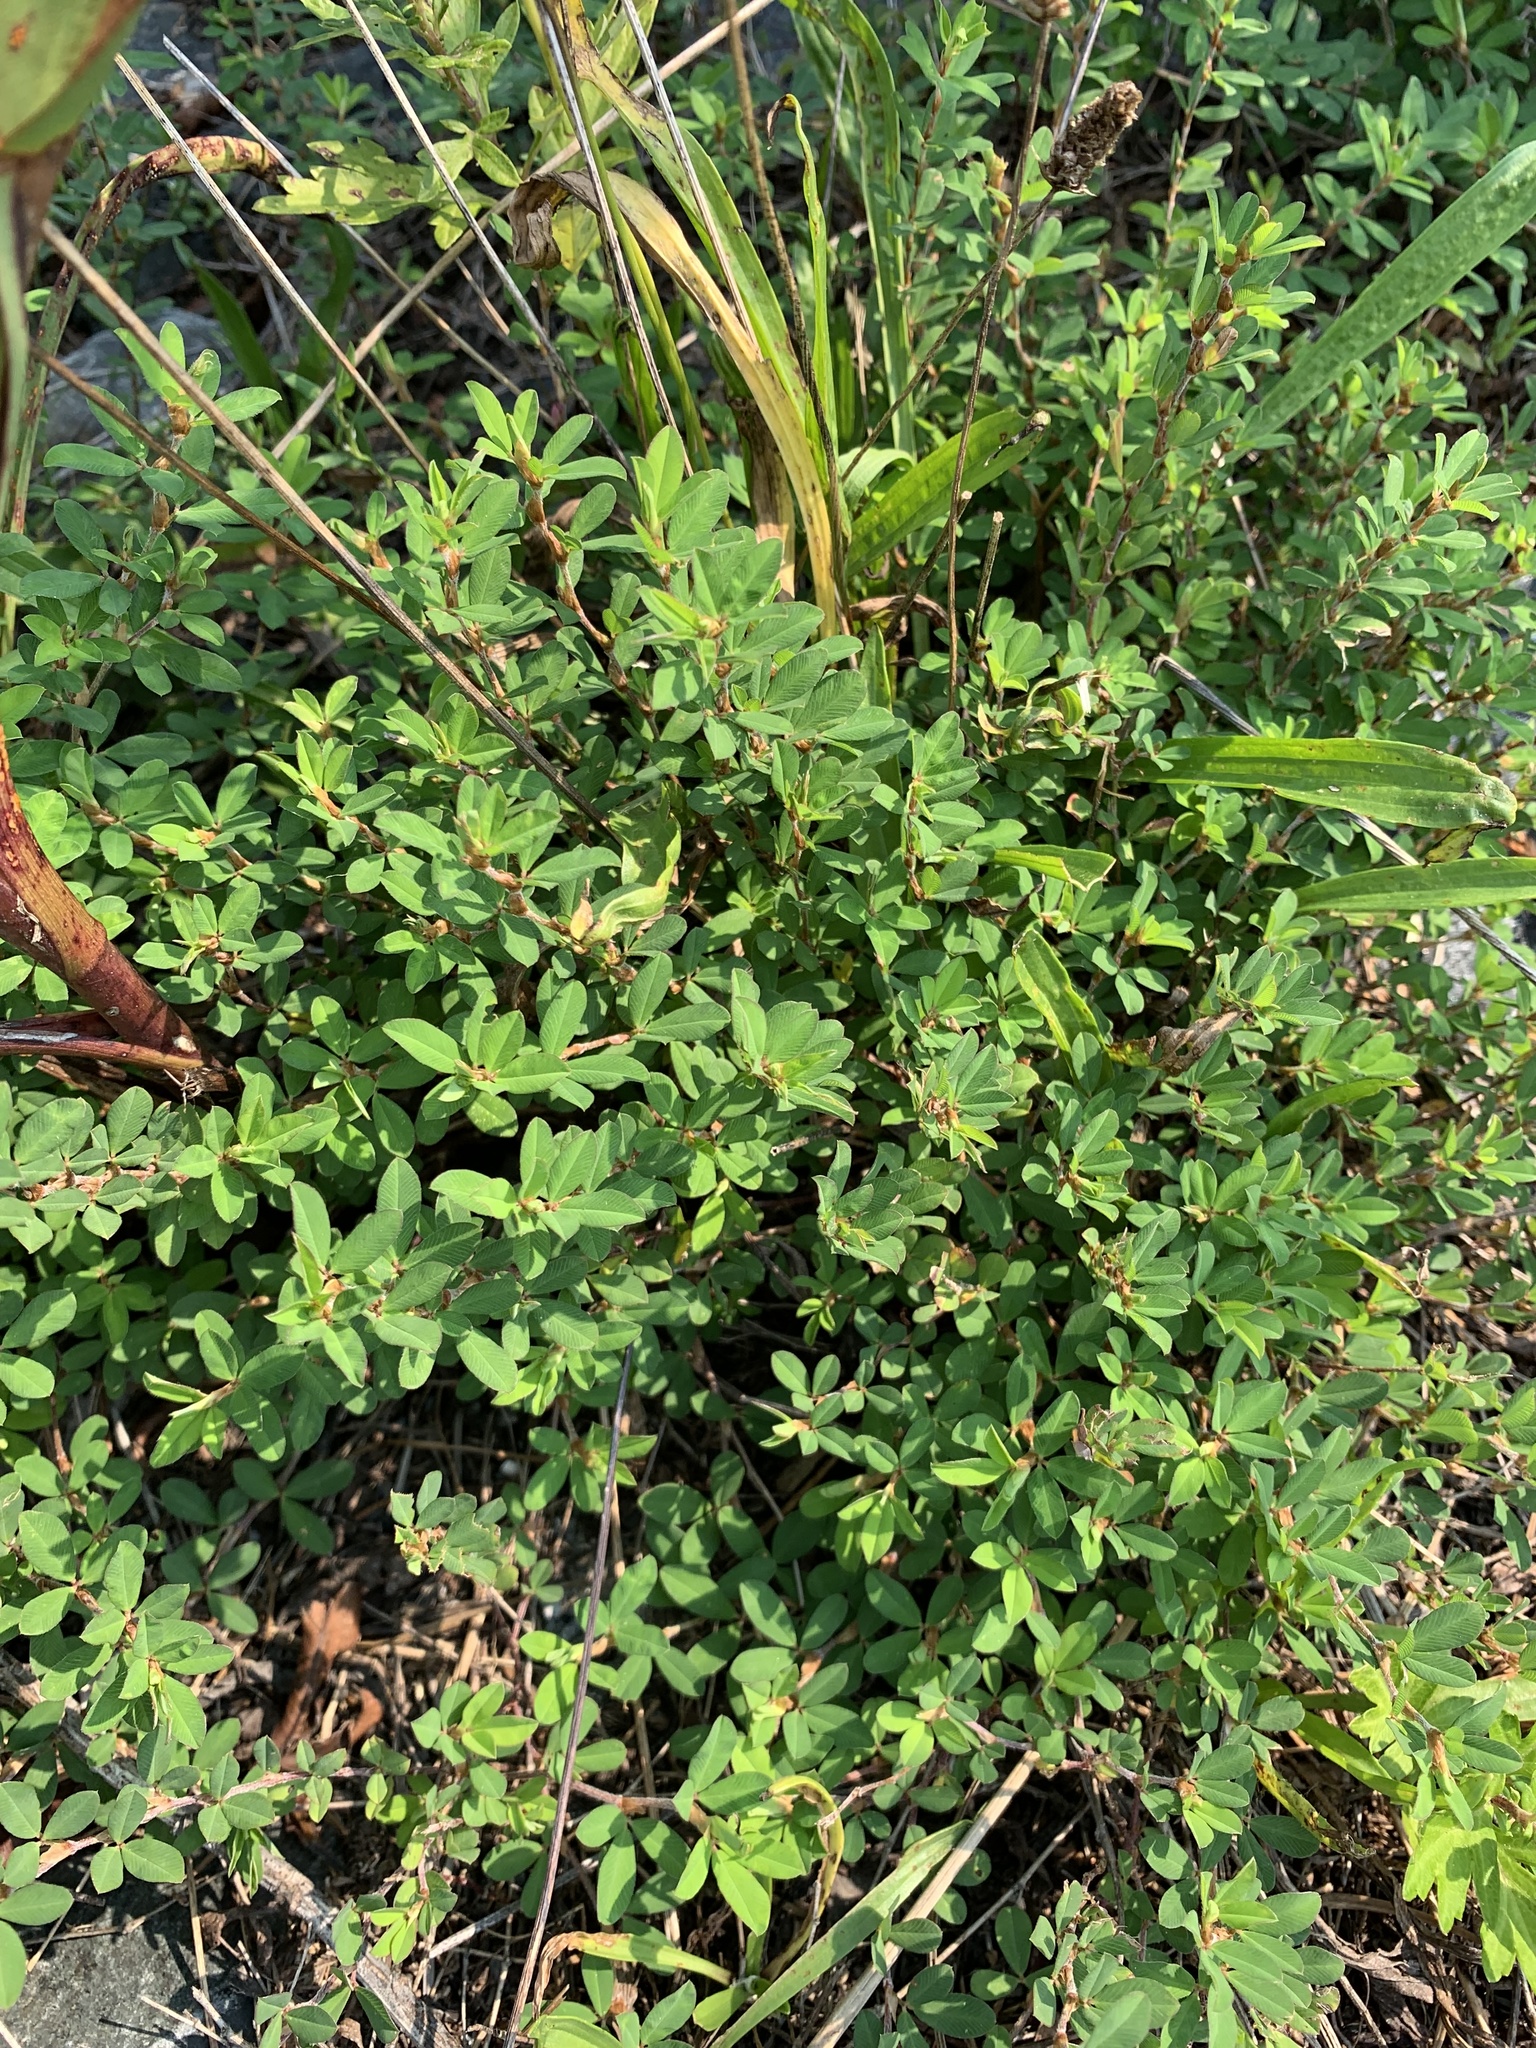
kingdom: Plantae
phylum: Tracheophyta
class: Magnoliopsida
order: Fabales
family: Fabaceae
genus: Kummerowia
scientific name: Kummerowia striata
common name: Japanese clover
